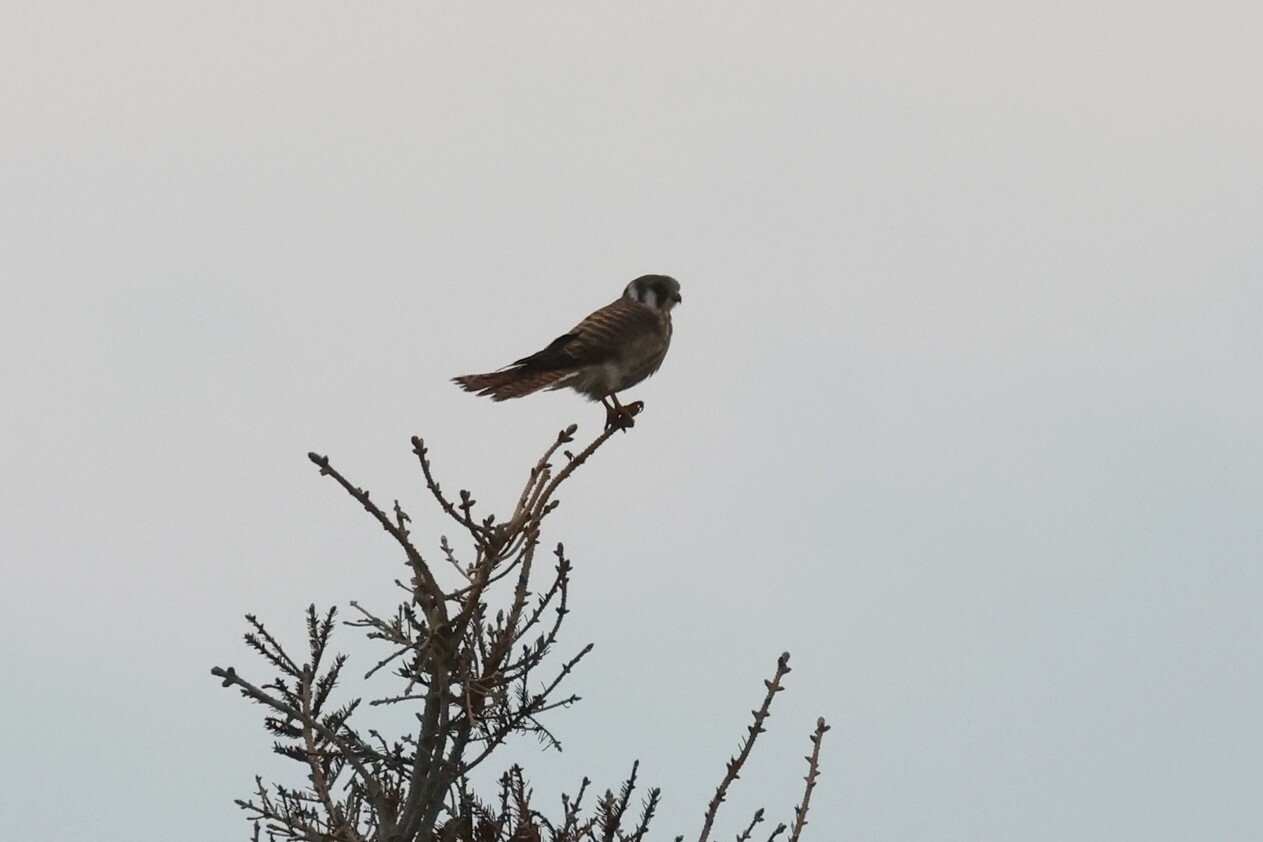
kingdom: Animalia
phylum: Chordata
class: Aves
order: Falconiformes
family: Falconidae
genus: Falco
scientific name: Falco sparverius
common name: American kestrel
